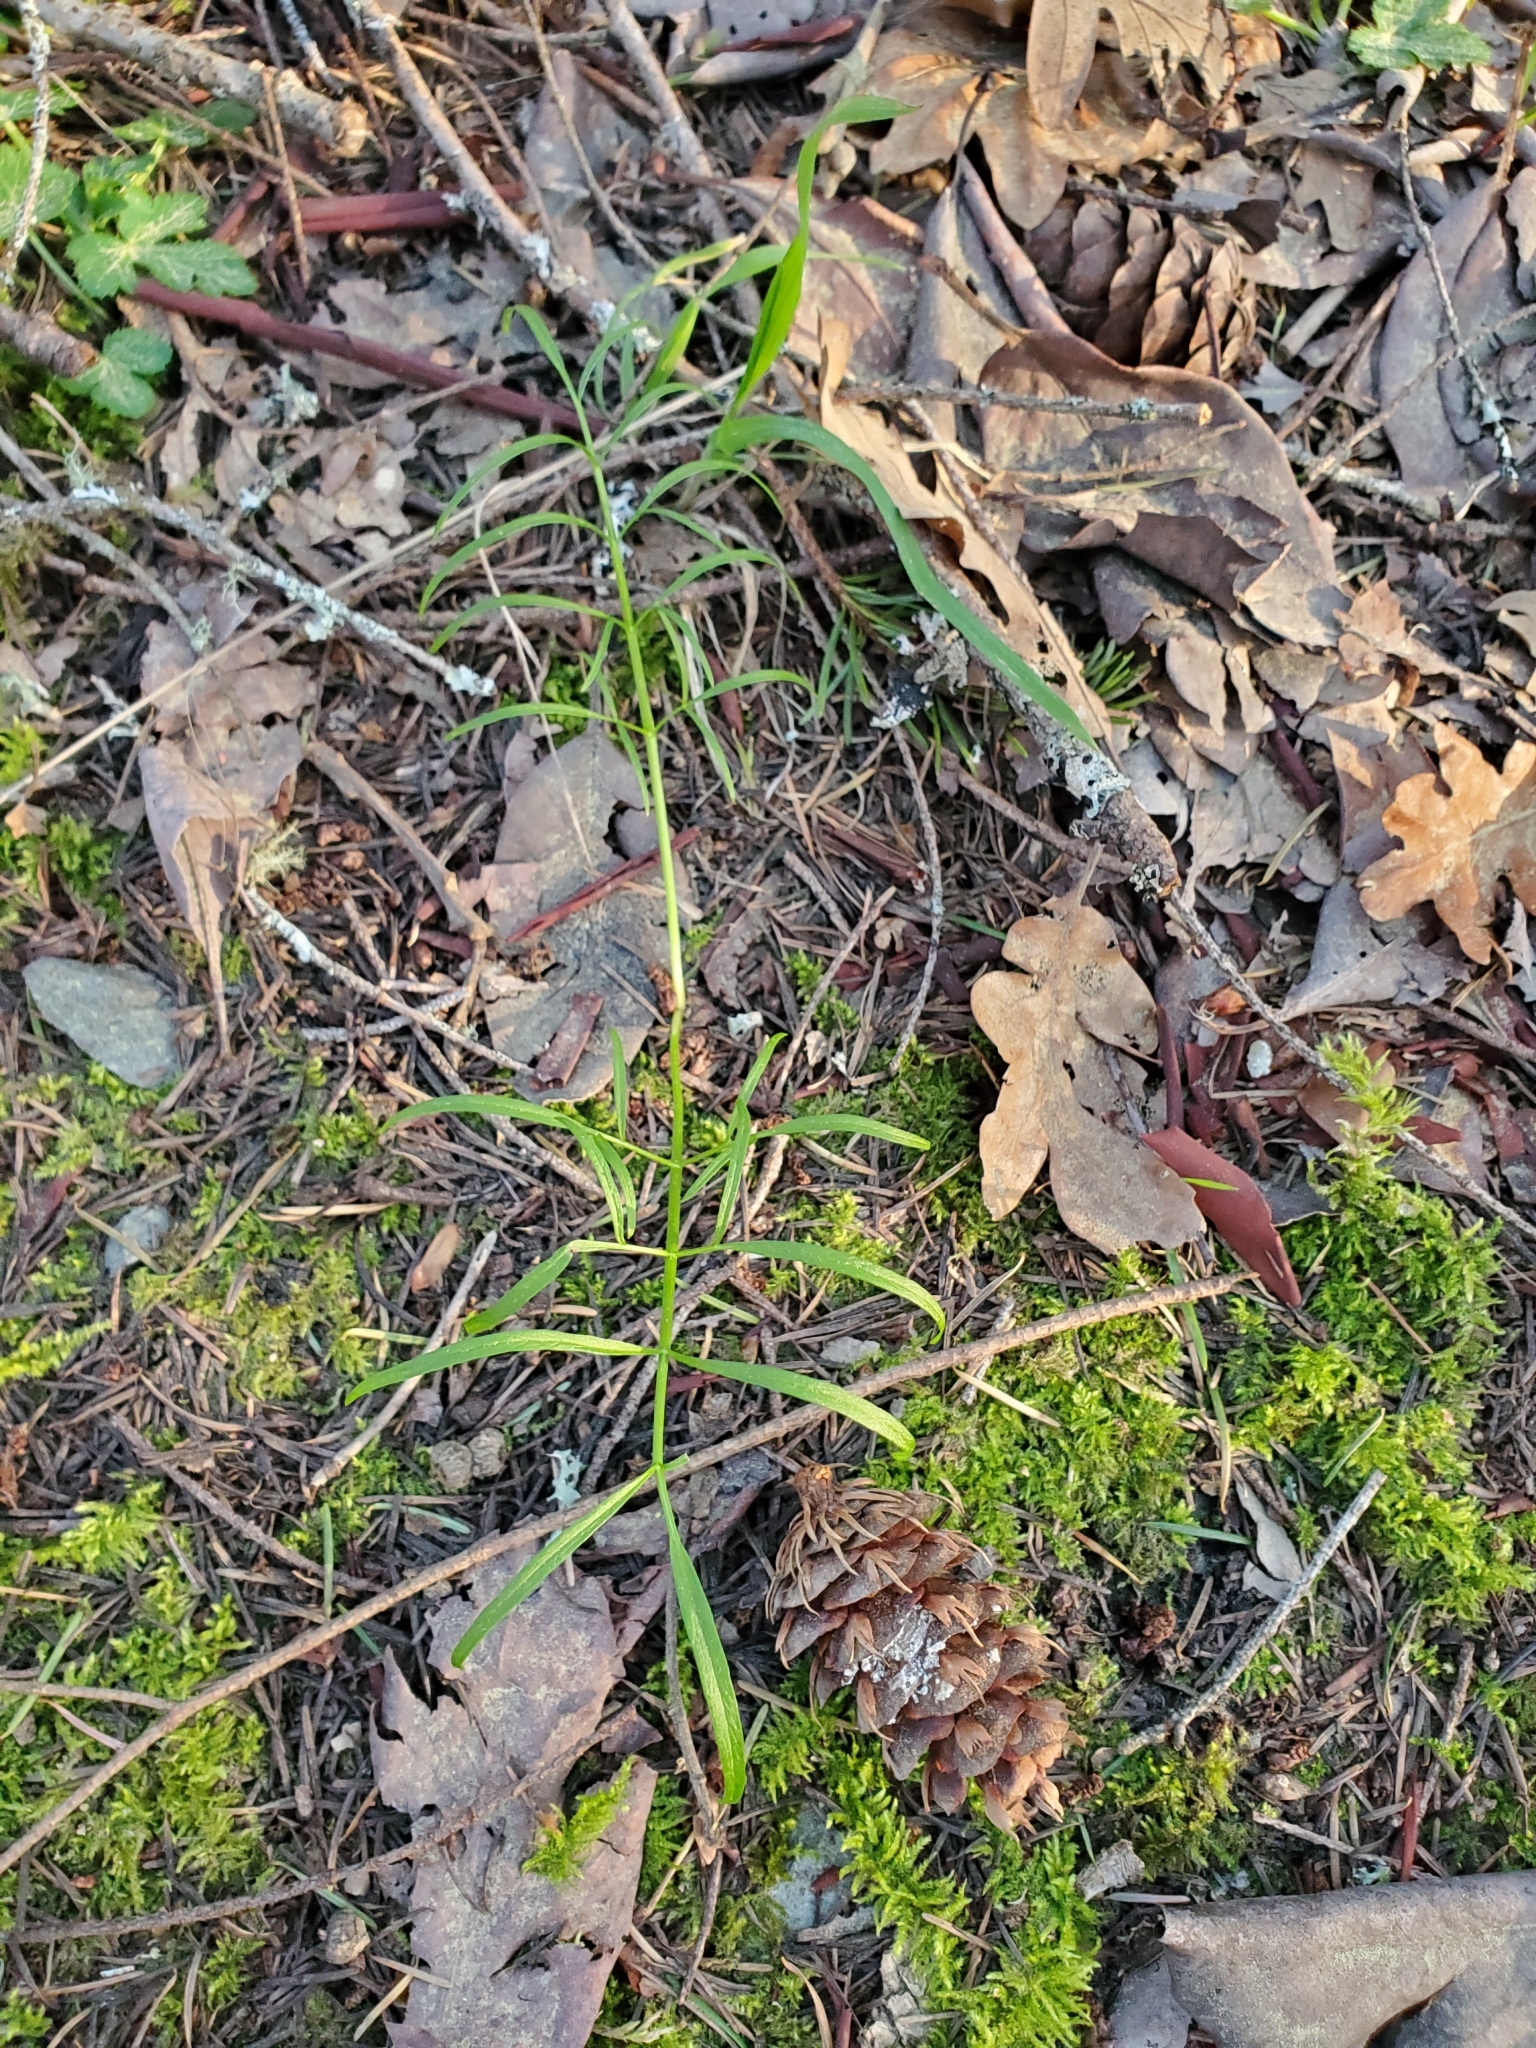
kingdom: Plantae
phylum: Tracheophyta
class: Magnoliopsida
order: Apiales
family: Apiaceae
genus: Perideridia
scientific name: Perideridia gairdneri
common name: False caraway
